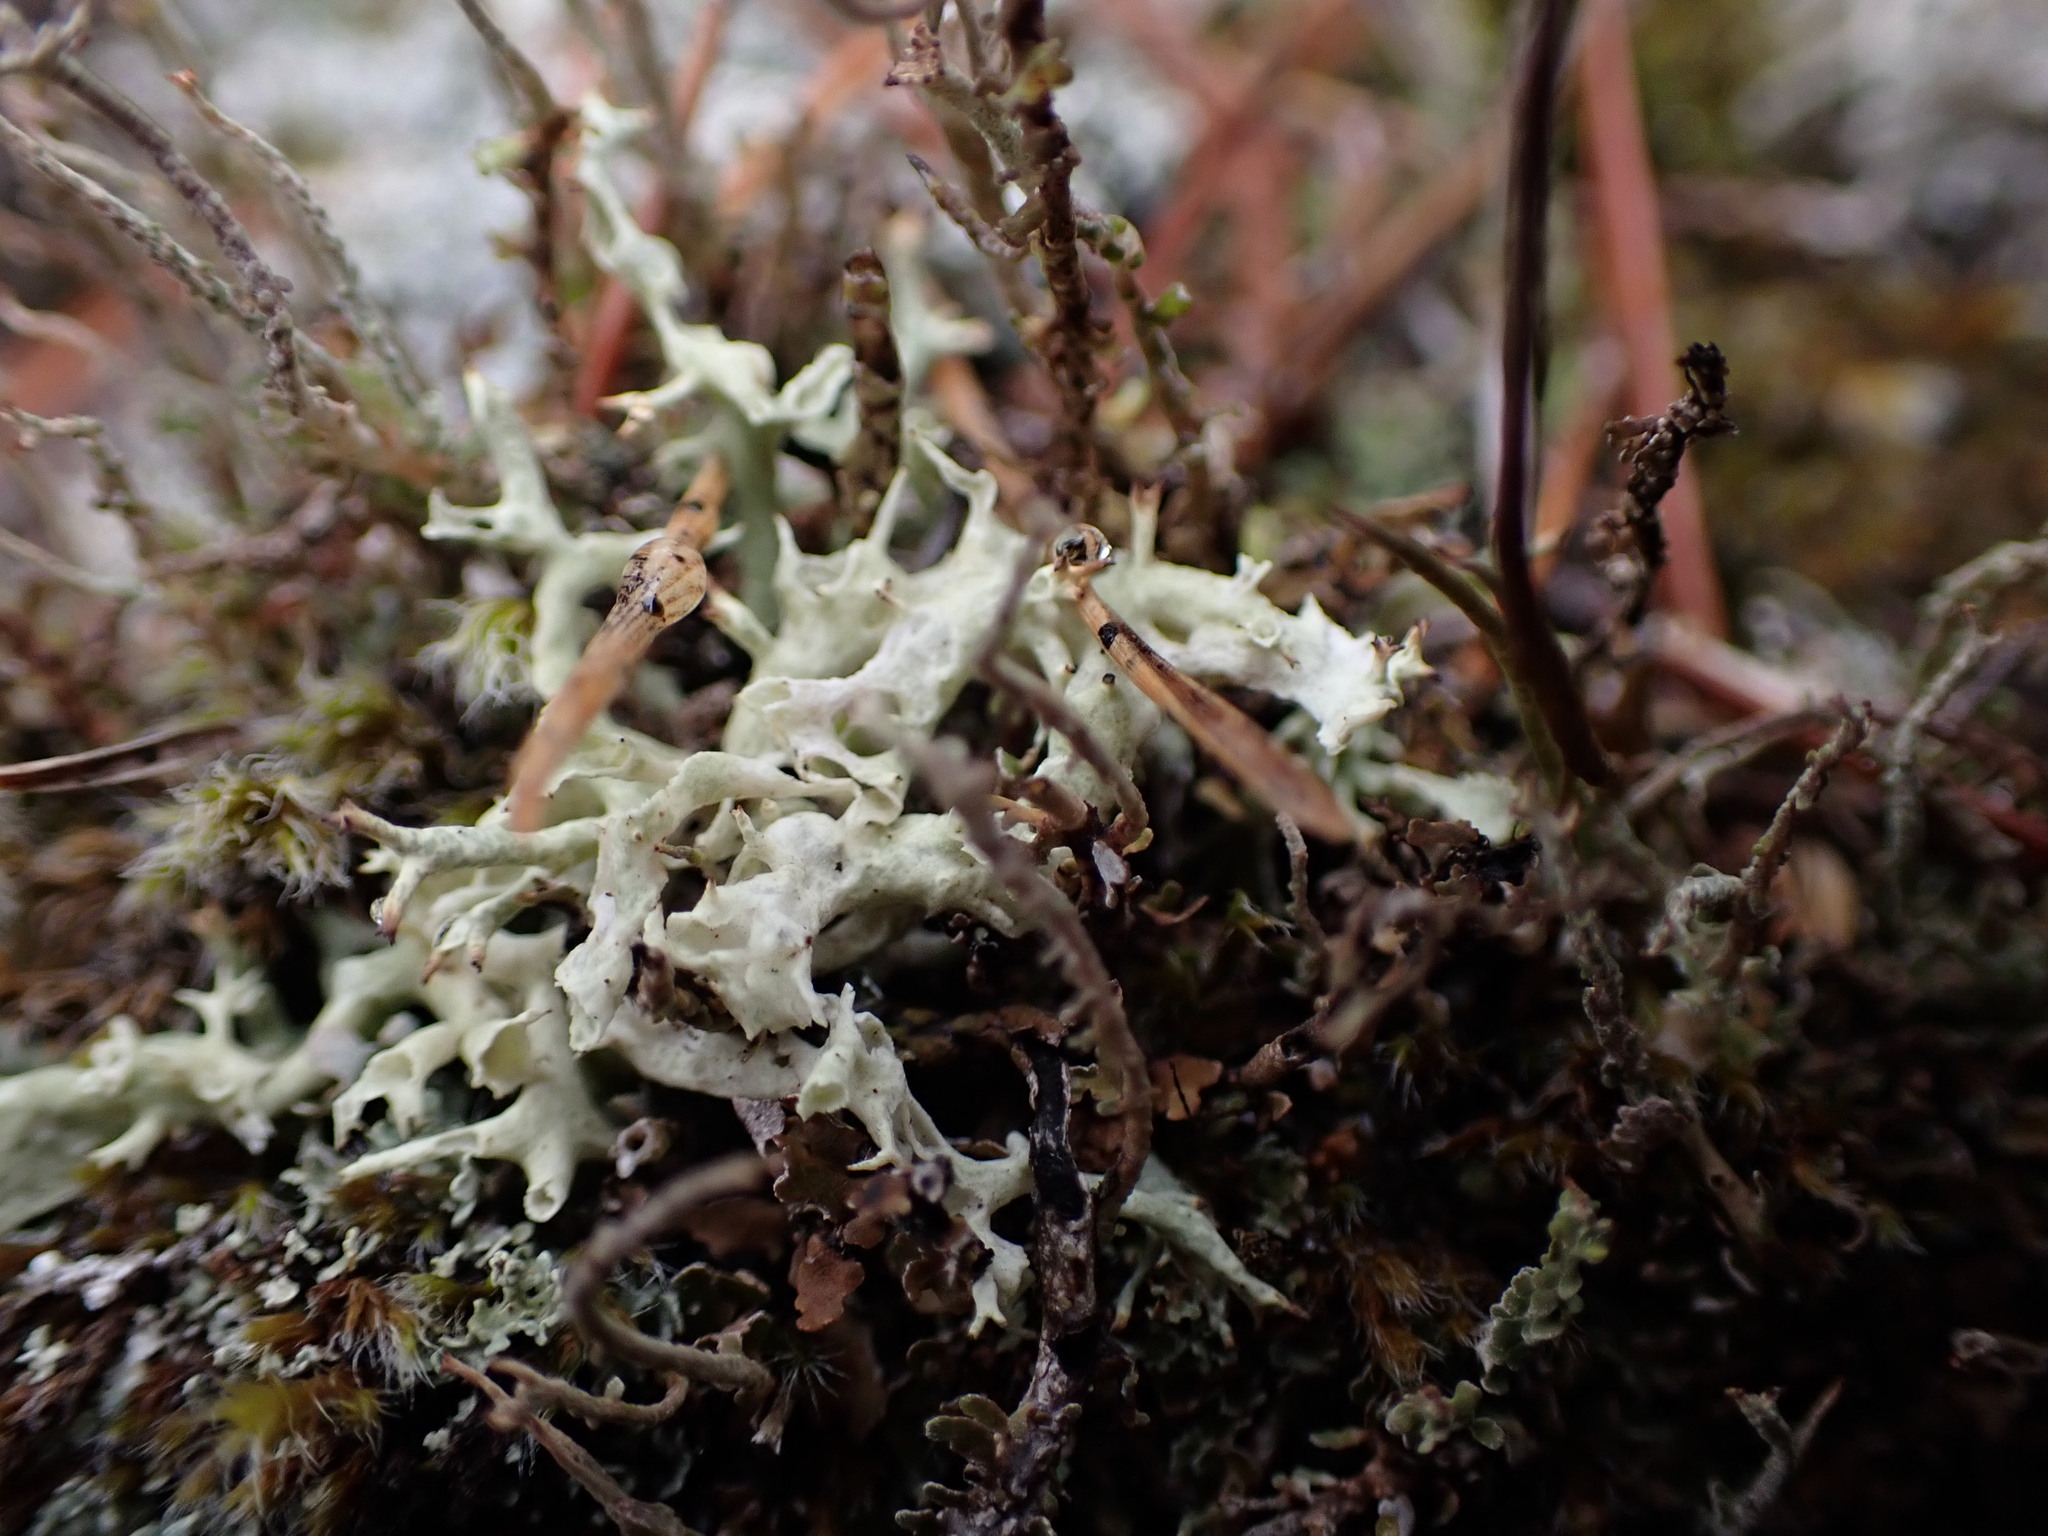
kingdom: Fungi
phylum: Ascomycota
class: Lecanoromycetes
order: Lecanorales
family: Cladoniaceae
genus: Cladonia
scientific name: Cladonia uncialis
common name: Thorn lichen
